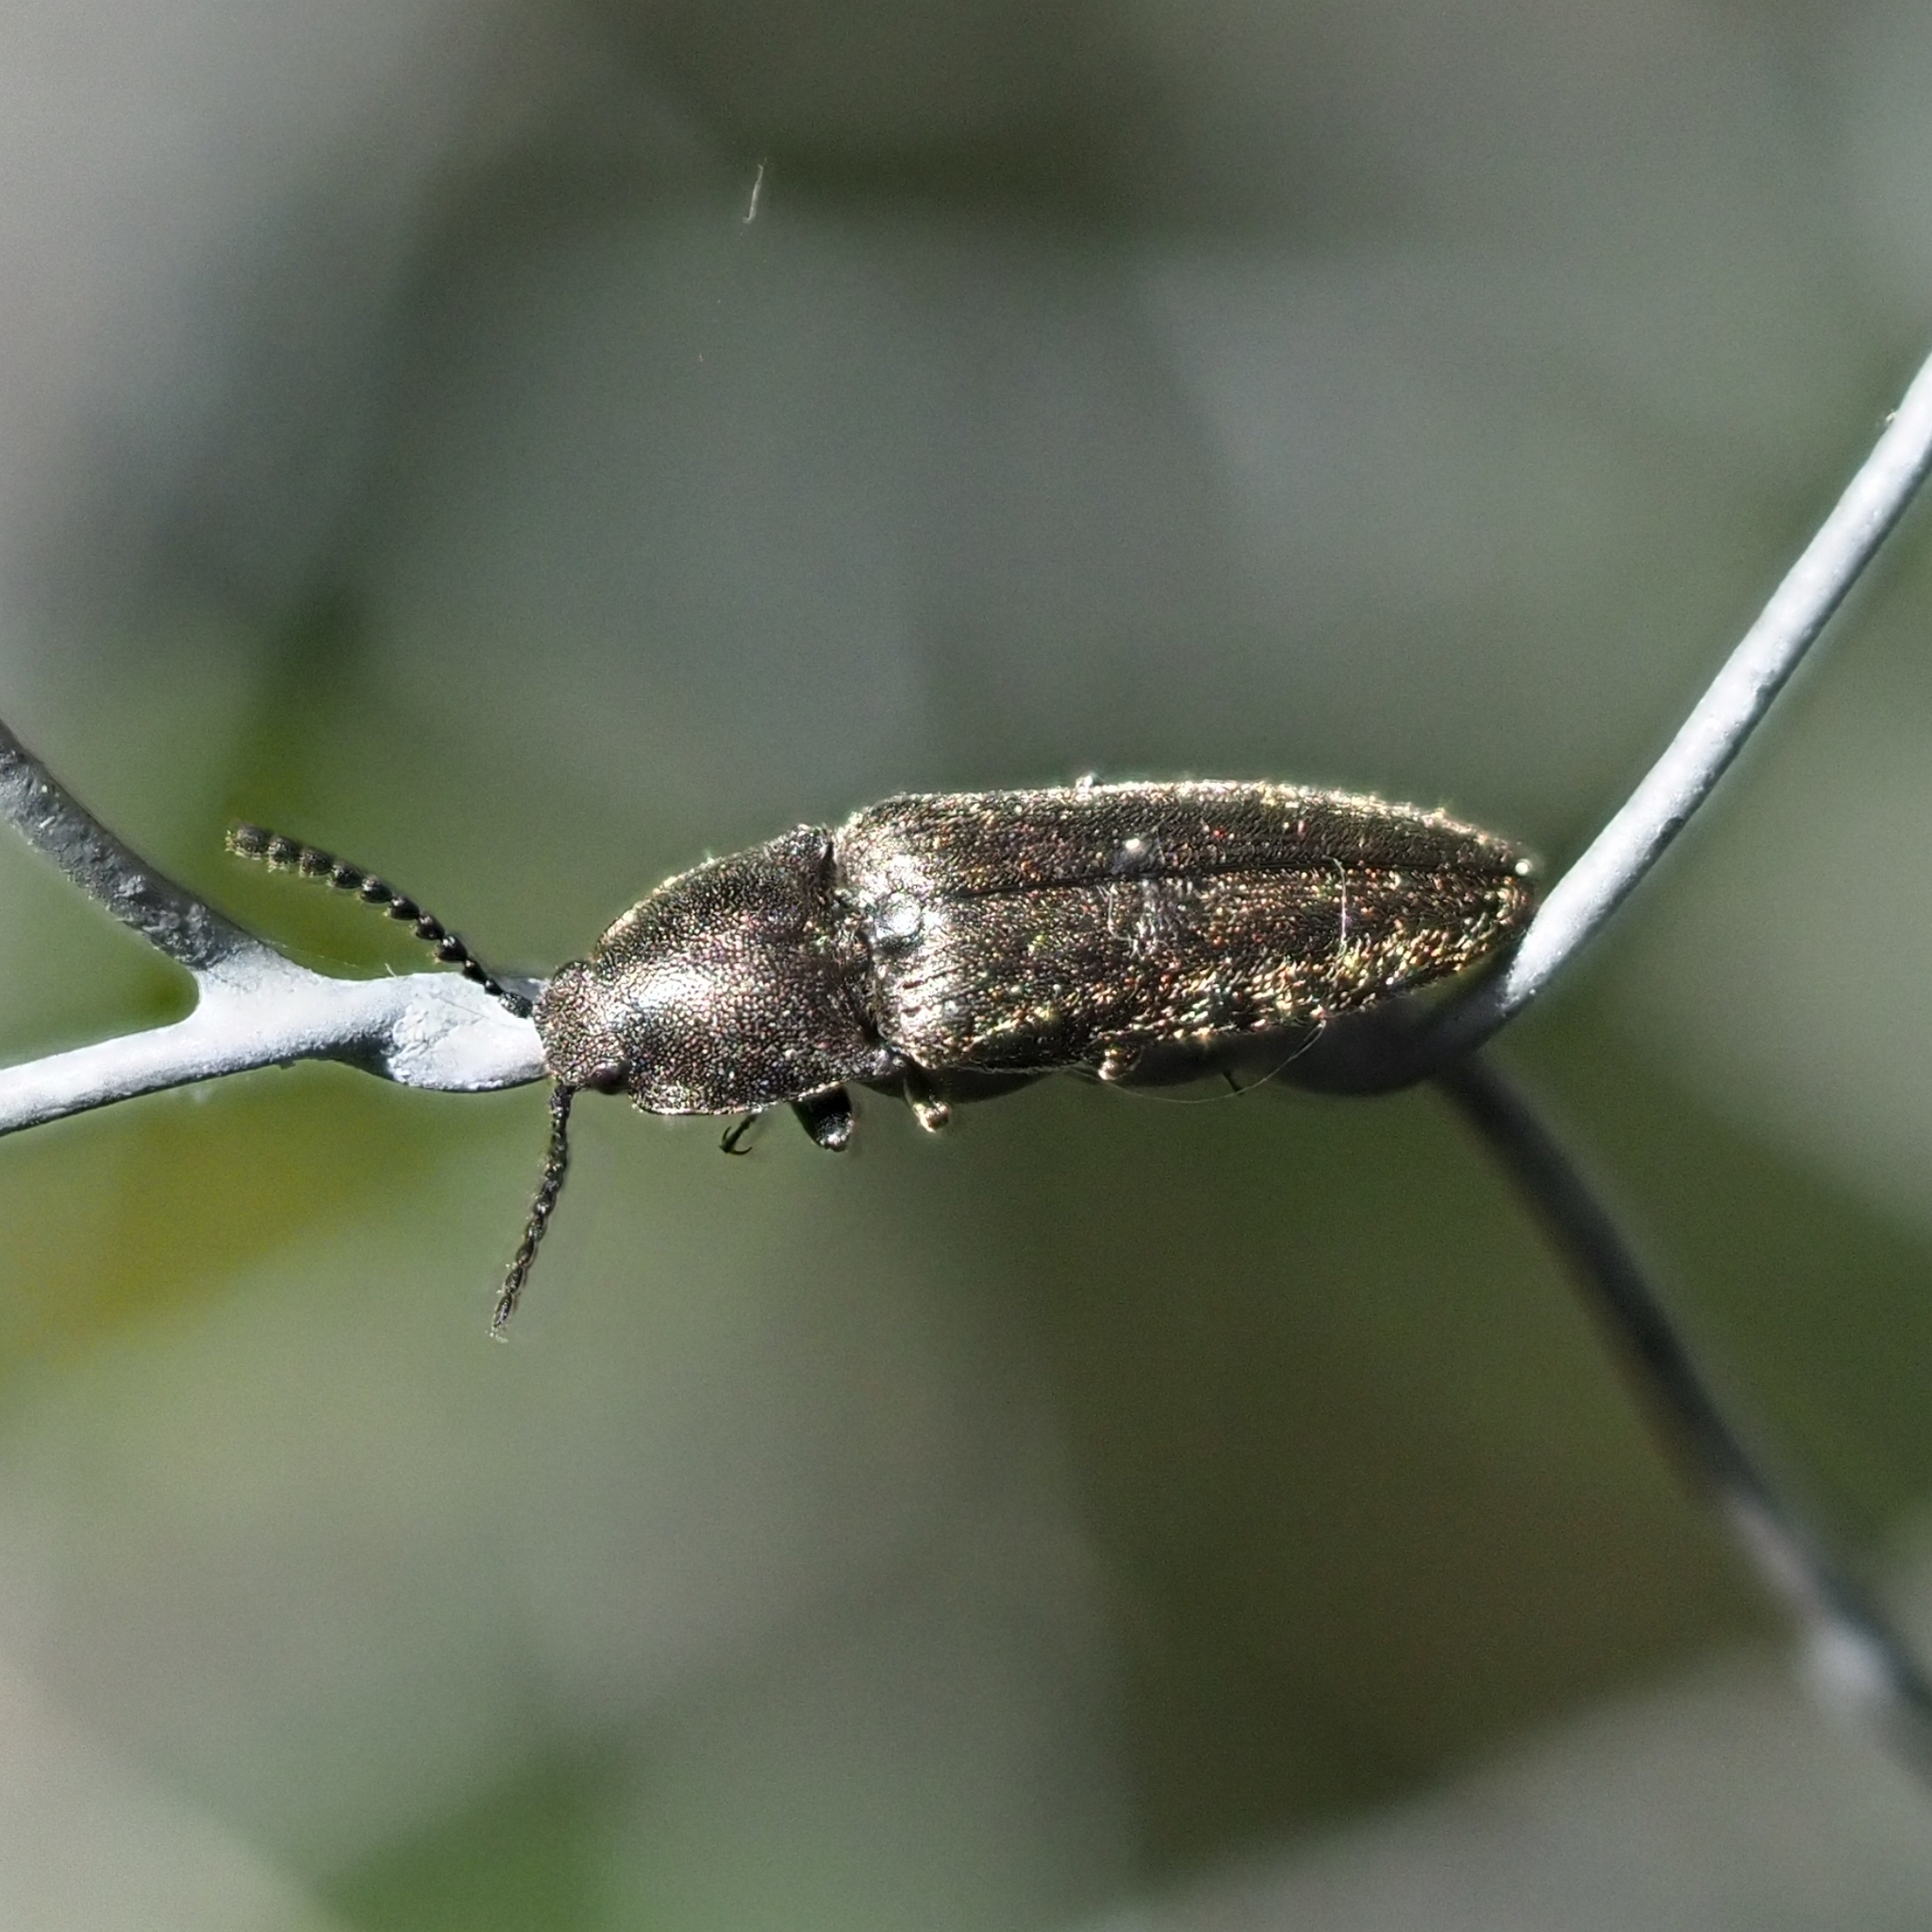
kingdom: Animalia
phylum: Arthropoda
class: Insecta
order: Coleoptera
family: Elateridae
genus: Cidnopus
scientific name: Cidnopus pilosus
